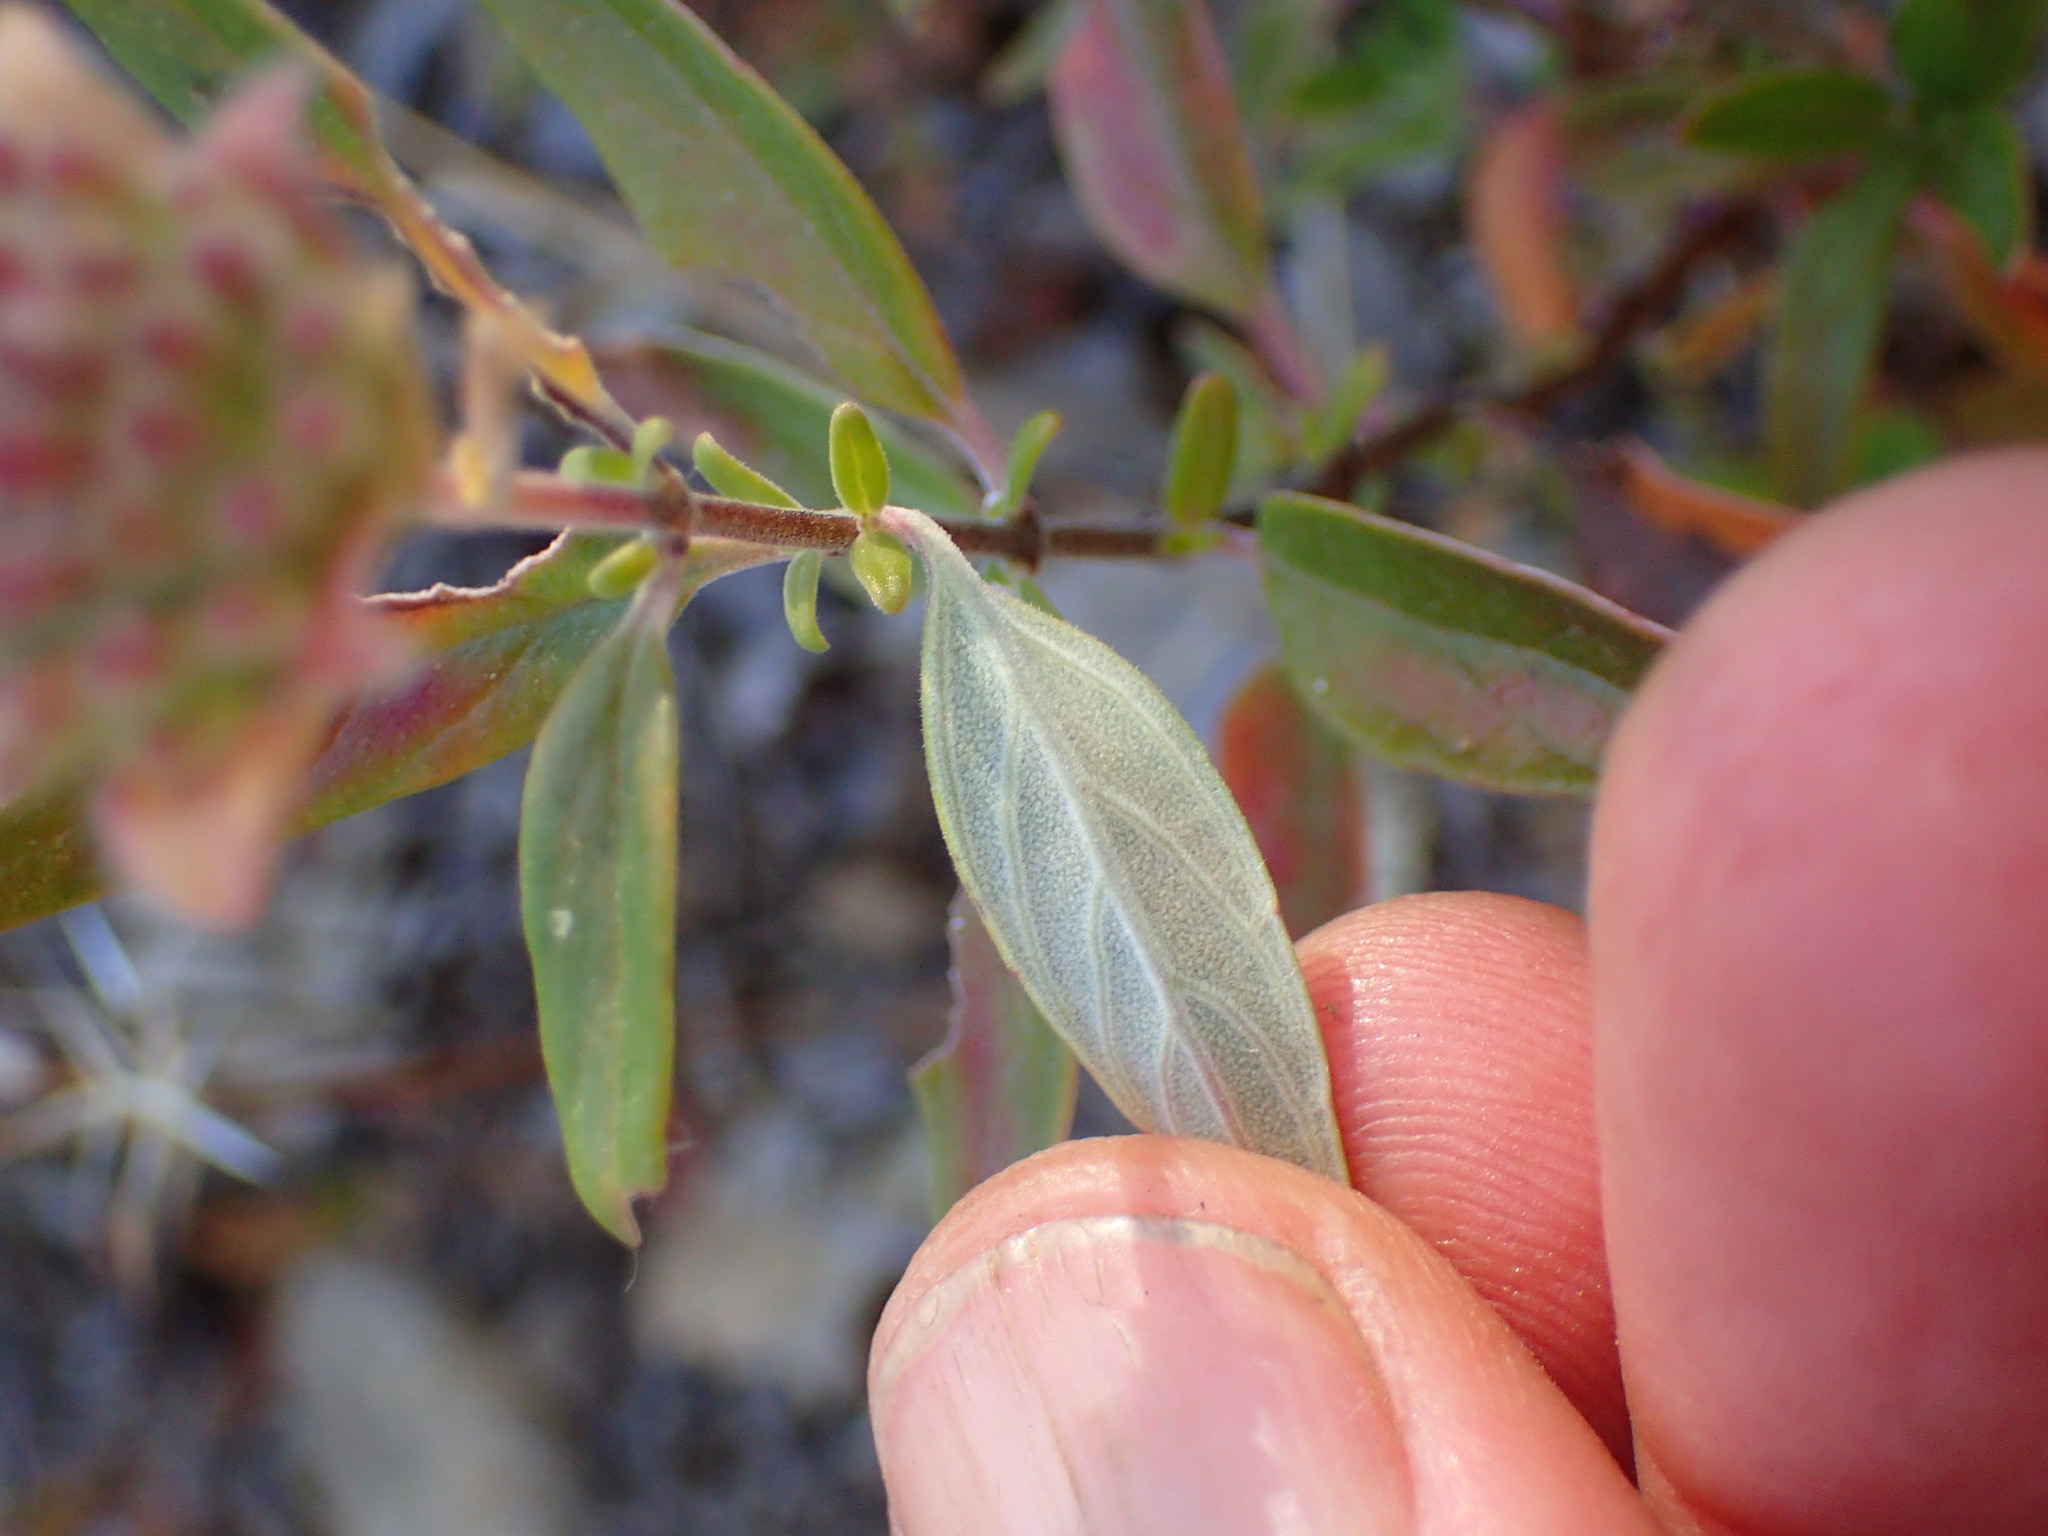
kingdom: Plantae
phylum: Tracheophyta
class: Magnoliopsida
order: Lamiales
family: Lamiaceae
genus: Monardella
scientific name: Monardella hypoleuca
